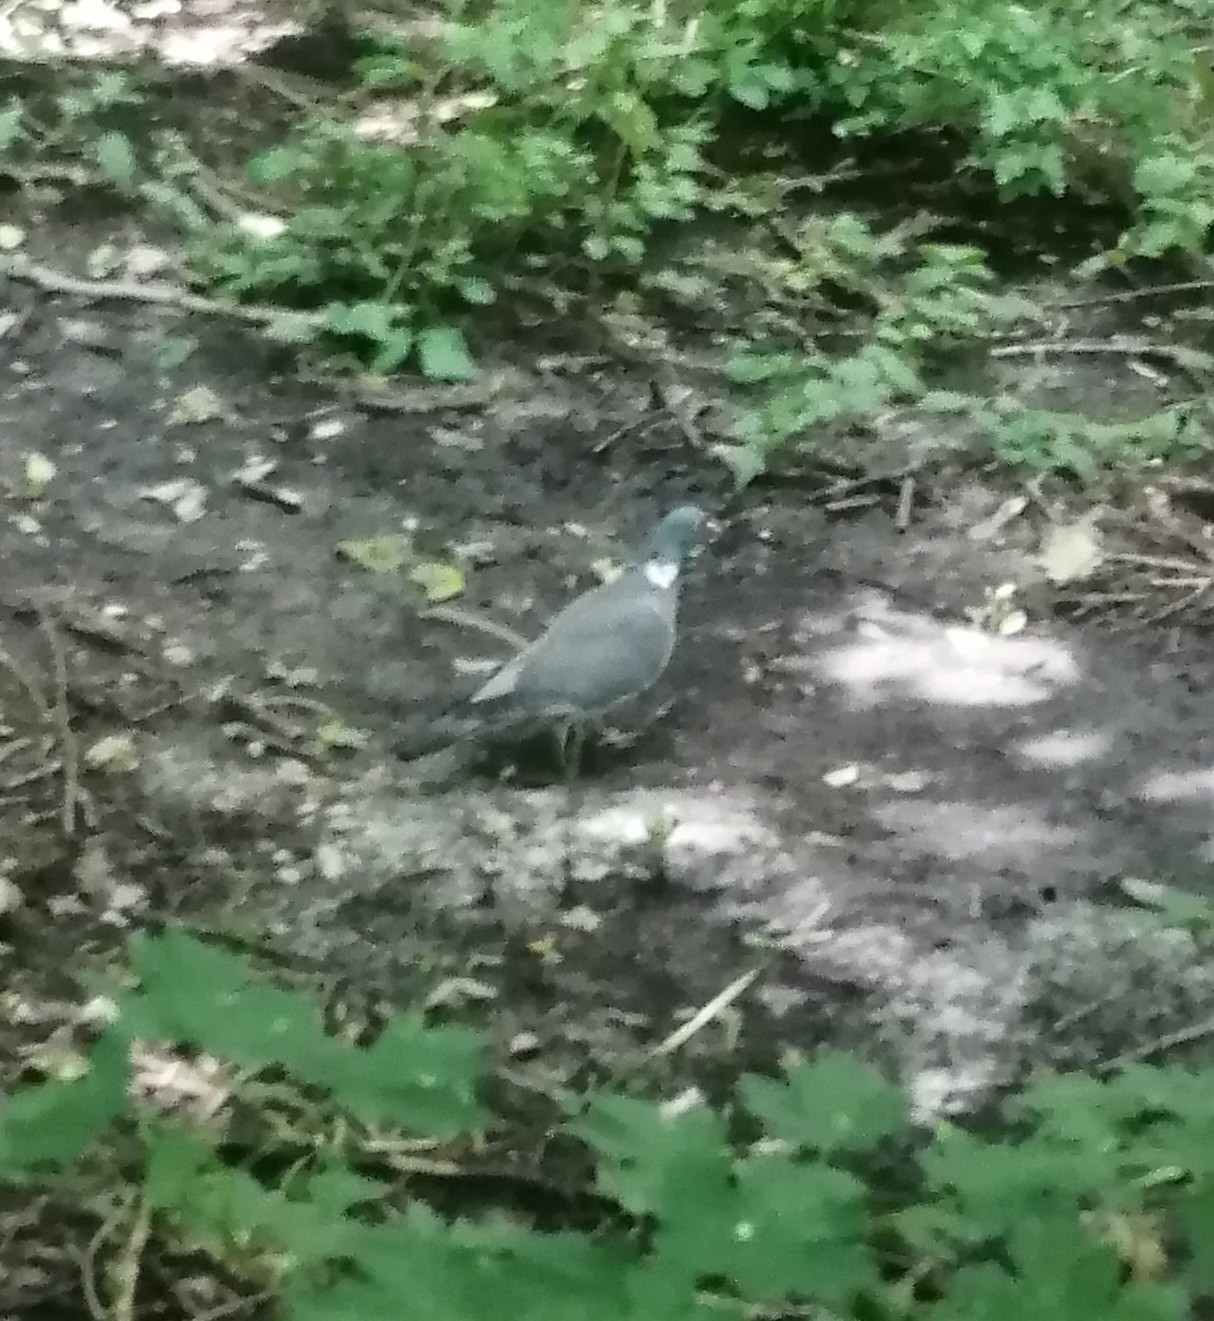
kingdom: Animalia
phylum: Chordata
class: Aves
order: Columbiformes
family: Columbidae
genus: Columba
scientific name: Columba palumbus
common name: Common wood pigeon
